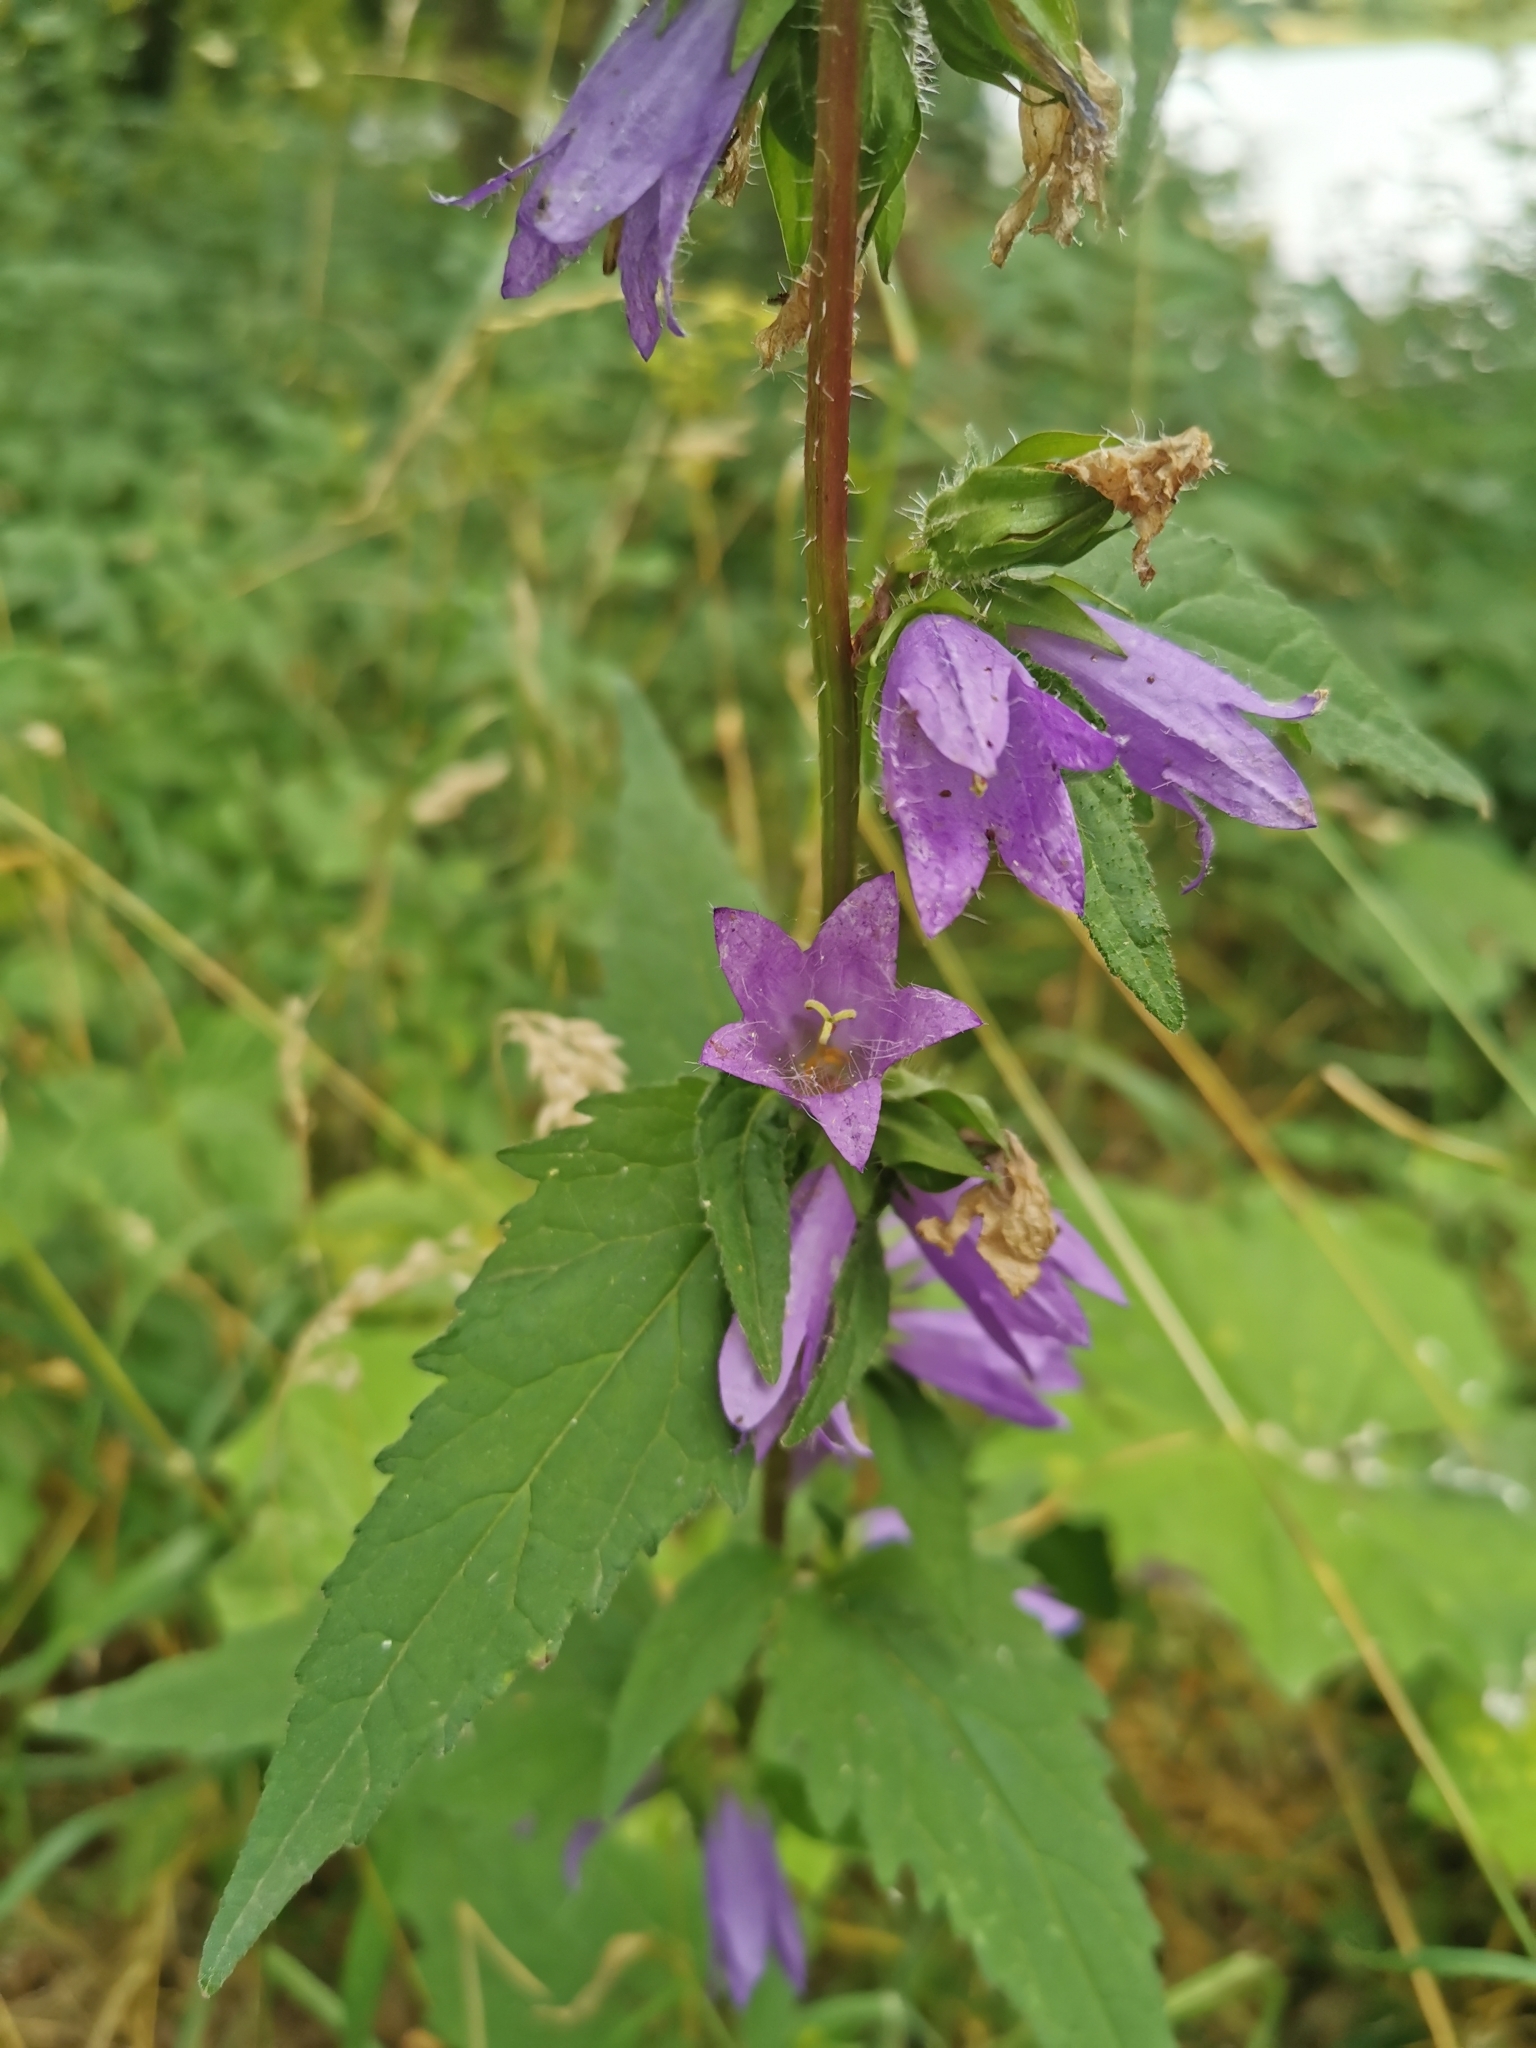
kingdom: Plantae
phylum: Tracheophyta
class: Magnoliopsida
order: Asterales
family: Campanulaceae
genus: Campanula
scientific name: Campanula trachelium
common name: Nettle-leaved bellflower
